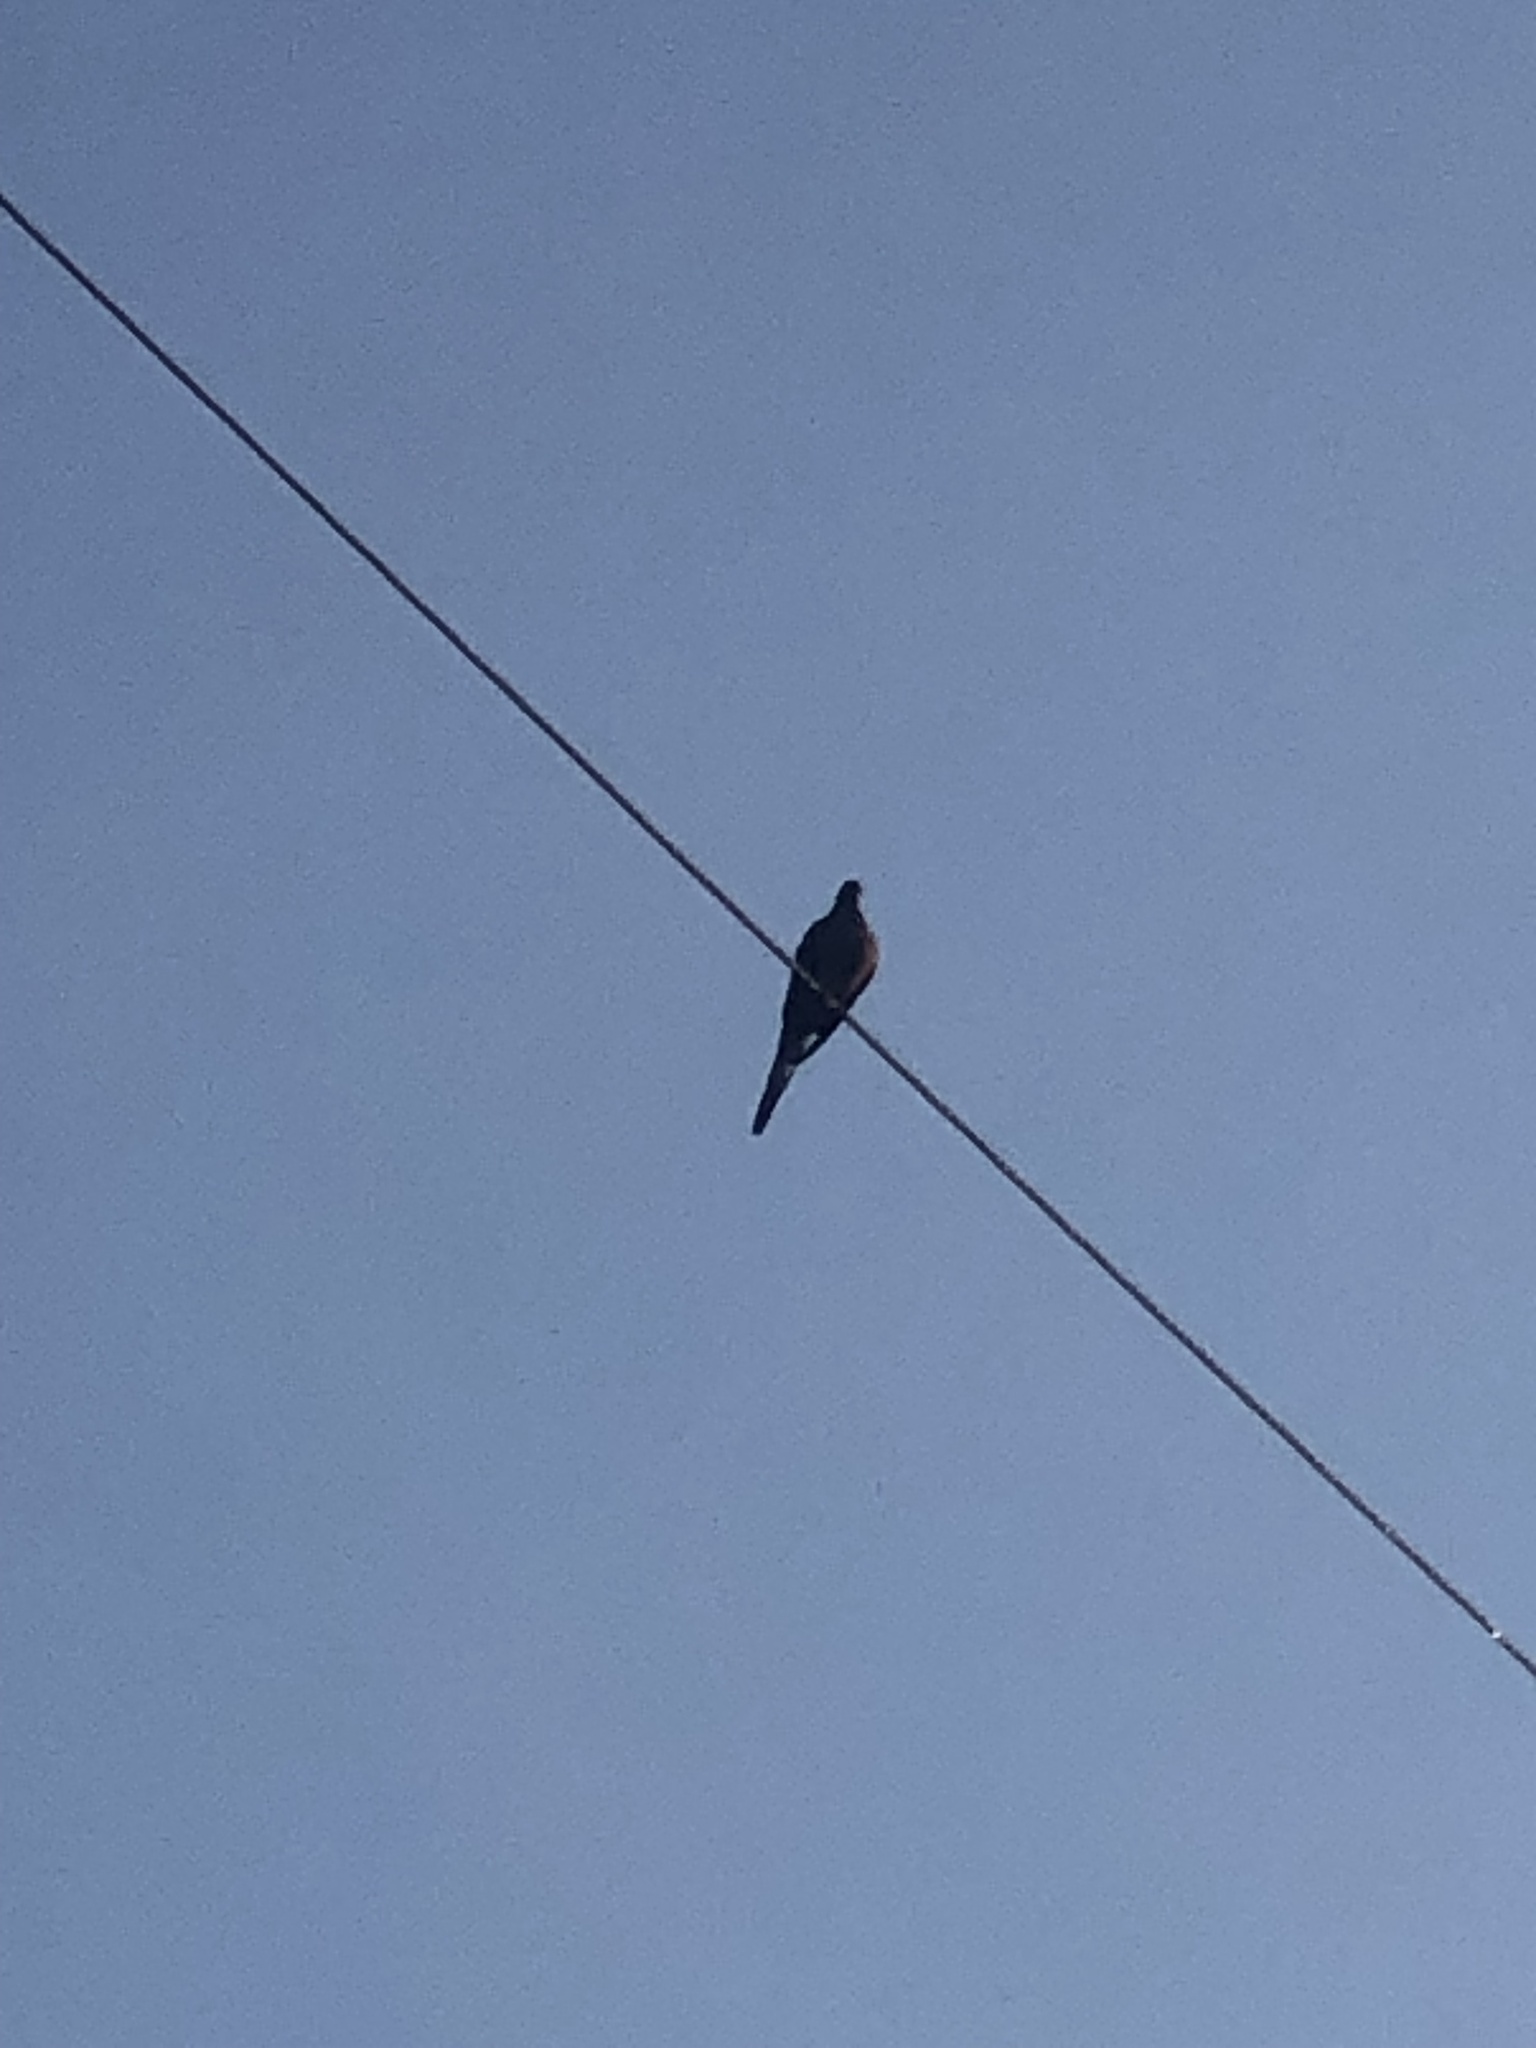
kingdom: Animalia
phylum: Chordata
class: Aves
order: Columbiformes
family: Columbidae
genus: Zenaida
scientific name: Zenaida macroura
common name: Mourning dove
